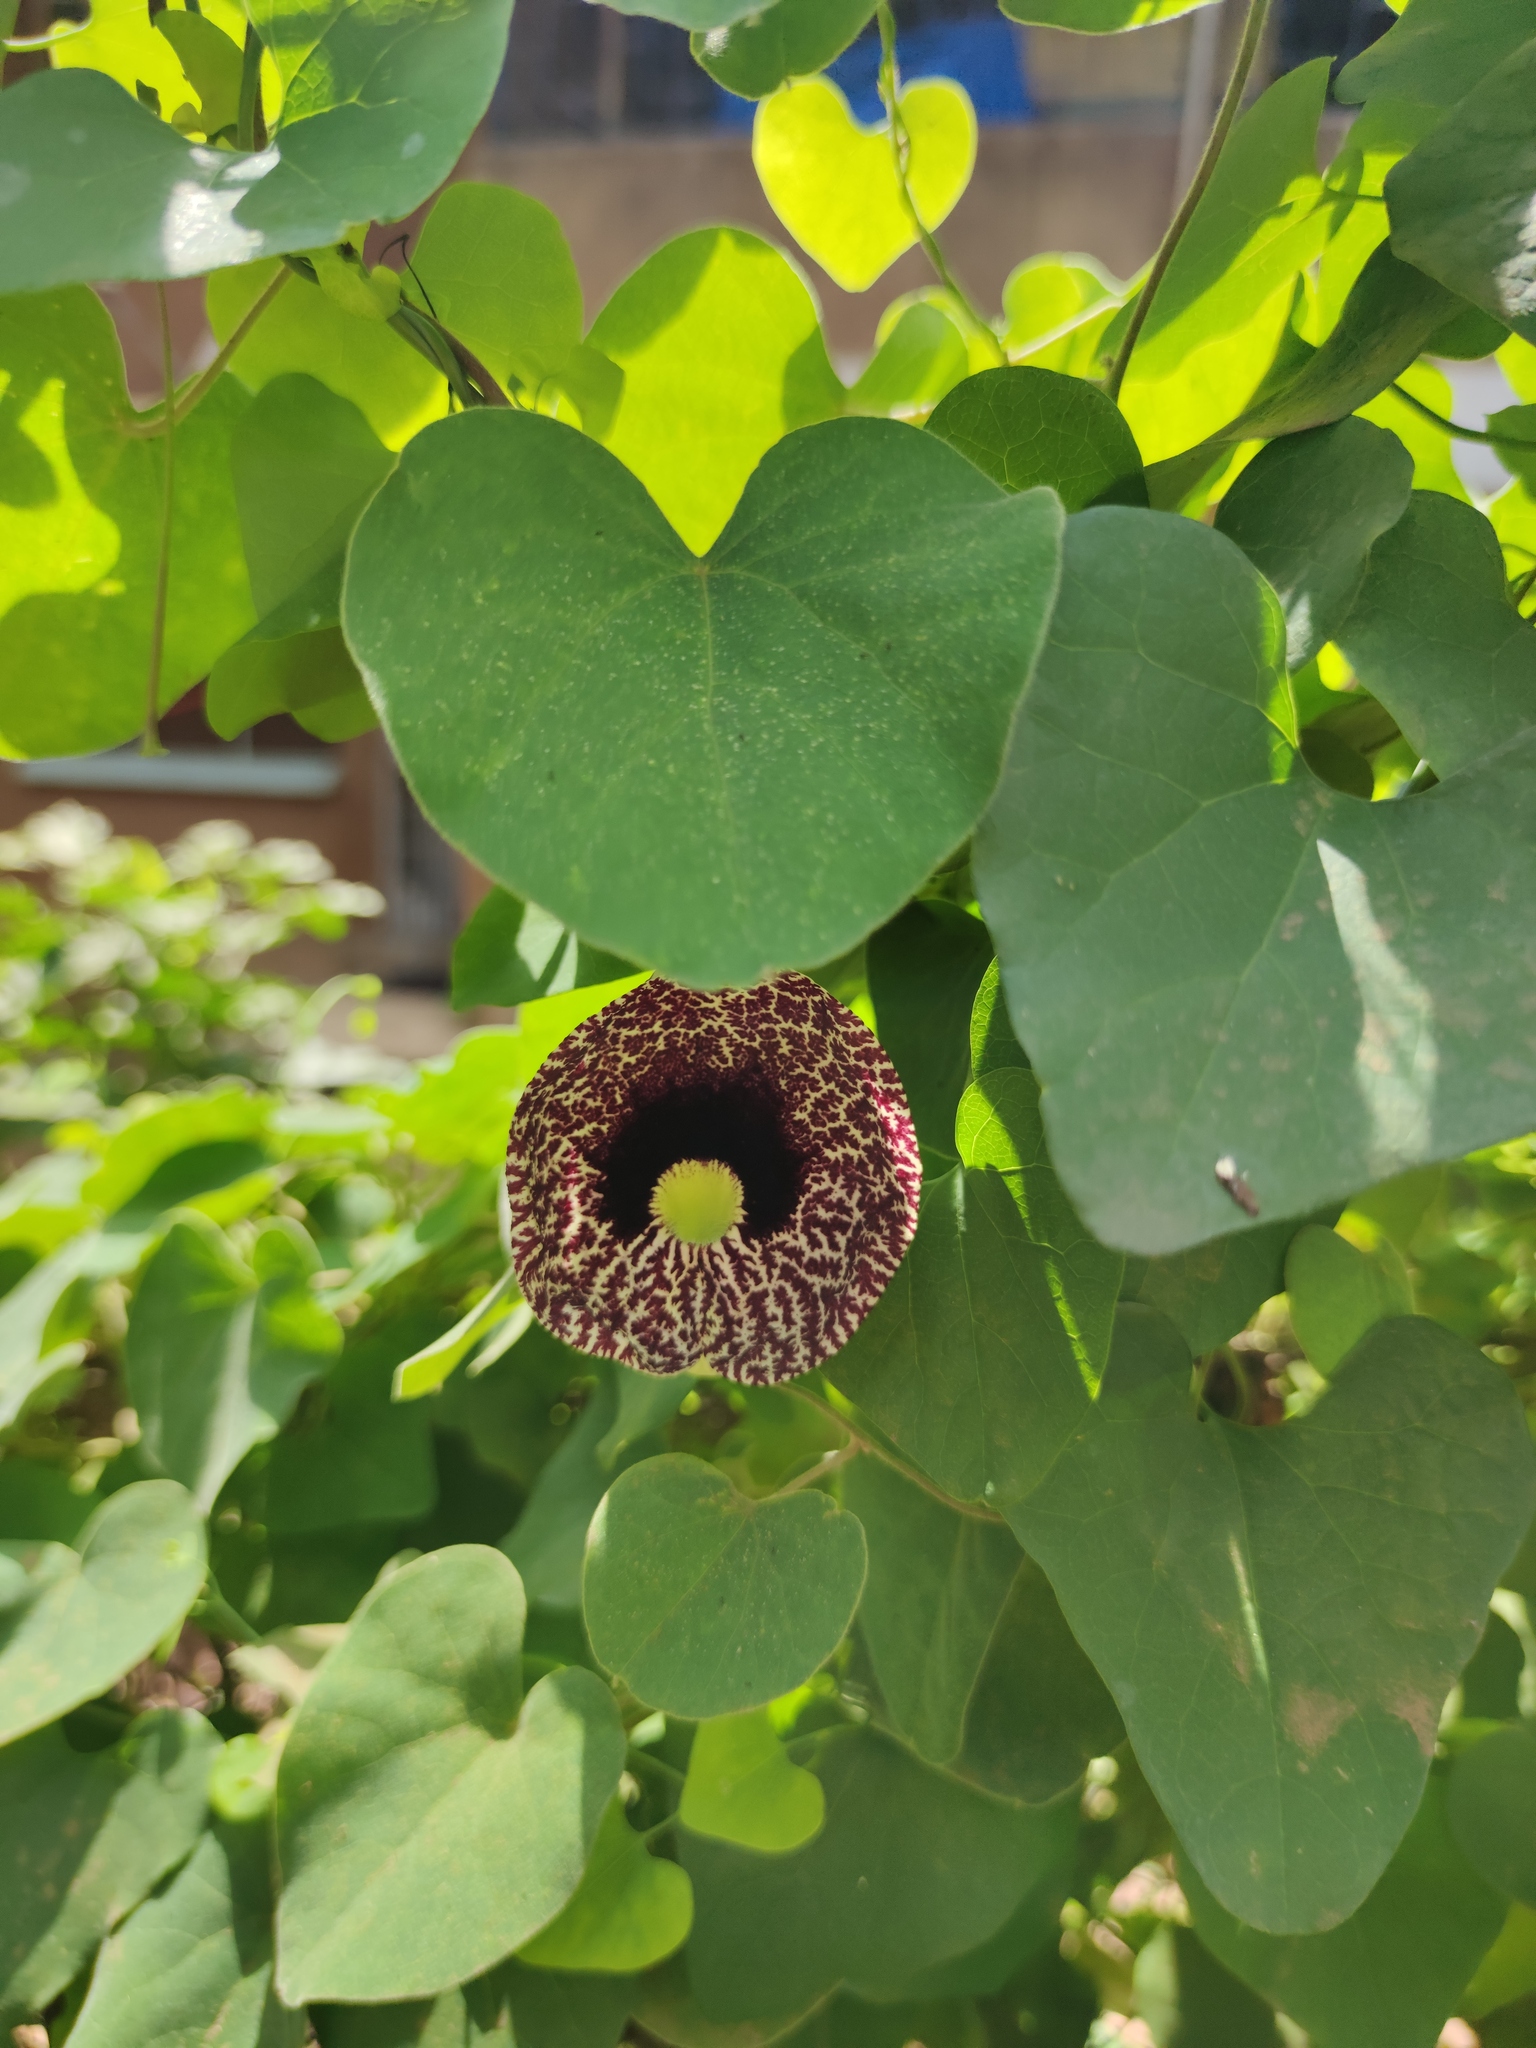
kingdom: Plantae
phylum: Tracheophyta
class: Magnoliopsida
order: Piperales
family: Aristolochiaceae
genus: Aristolochia
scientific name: Aristolochia littoralis
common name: Duck
